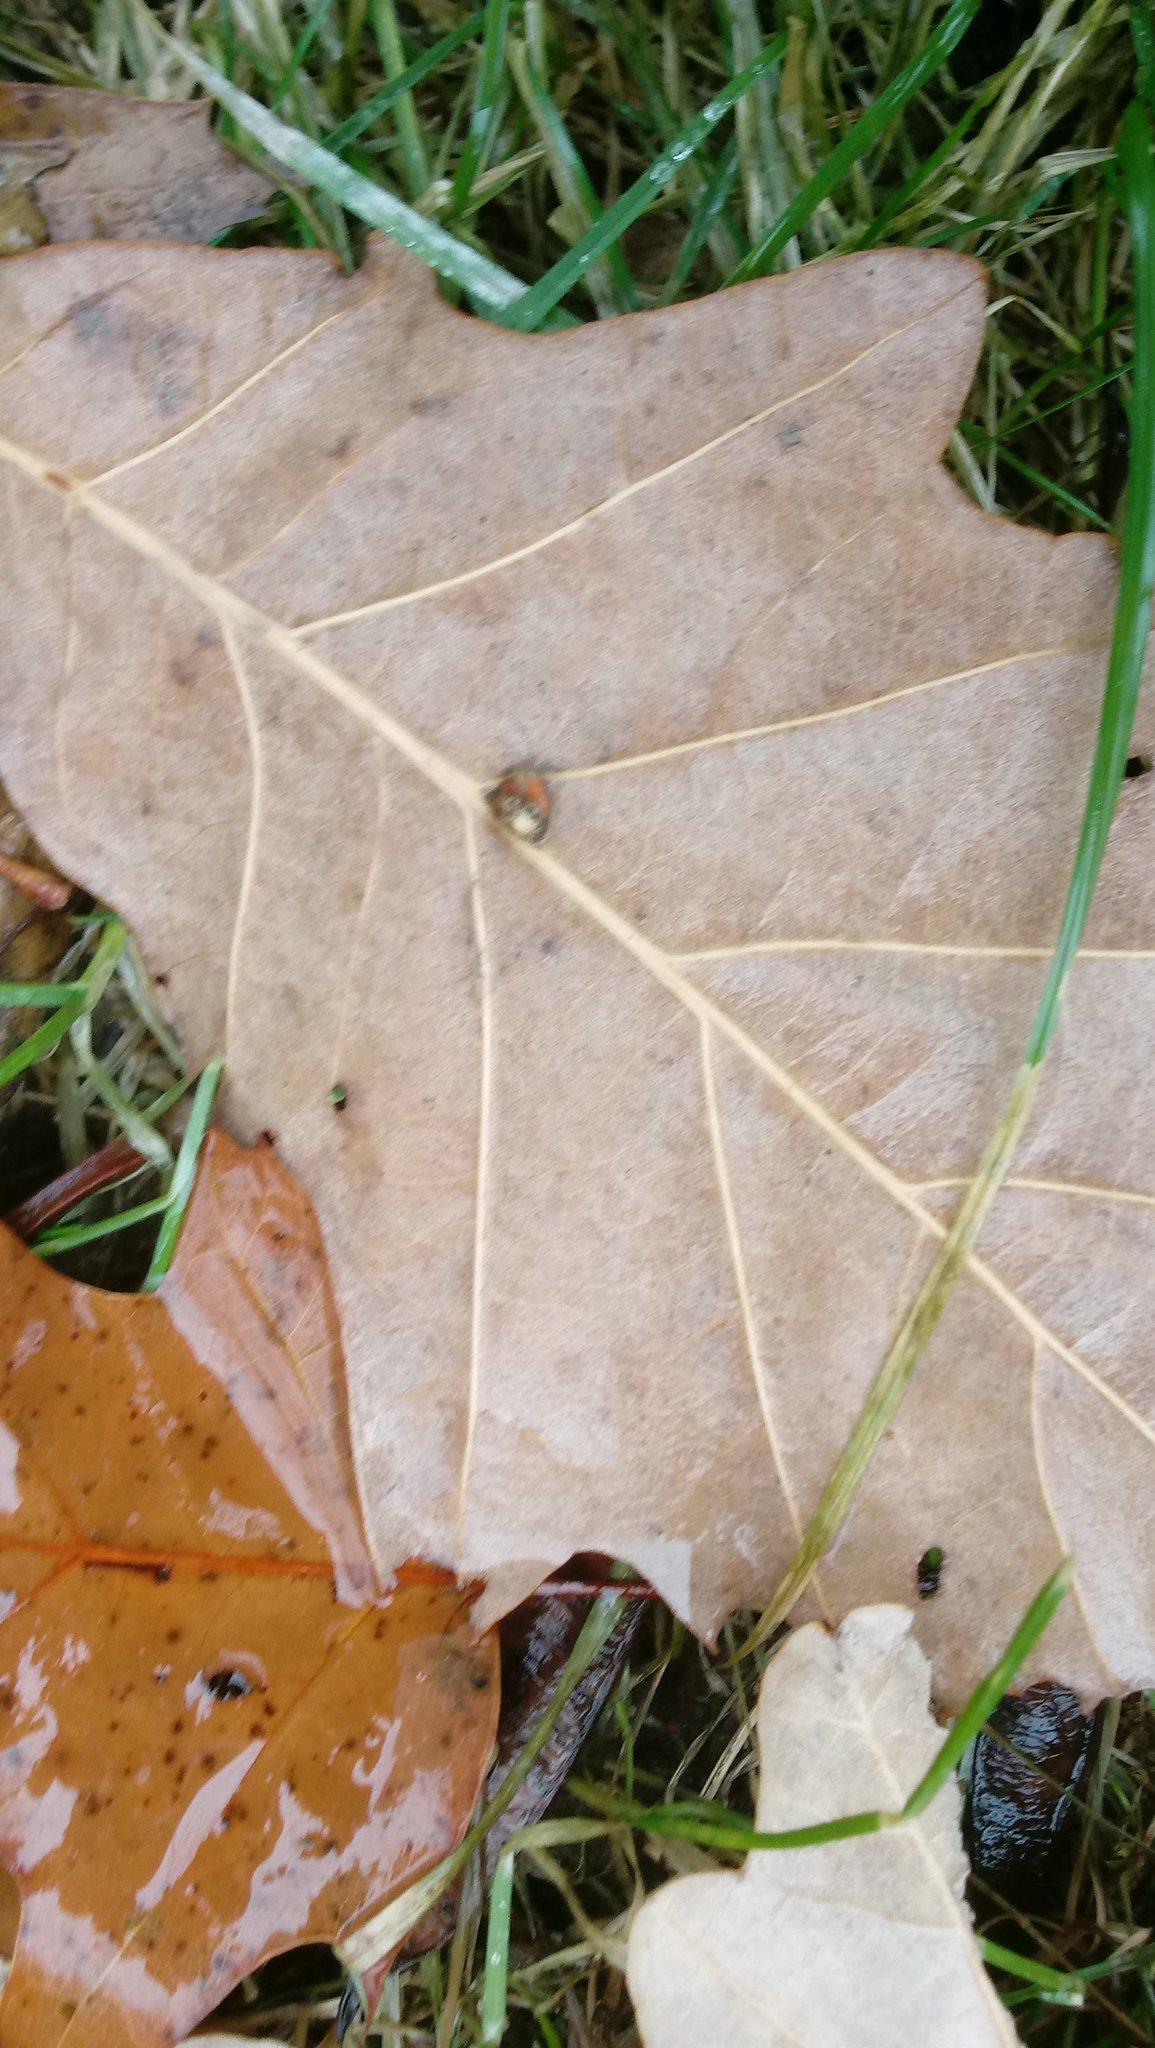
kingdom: Animalia
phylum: Arthropoda
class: Insecta
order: Hymenoptera
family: Cynipidae
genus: Andricus
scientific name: Andricus Druon ignotum
